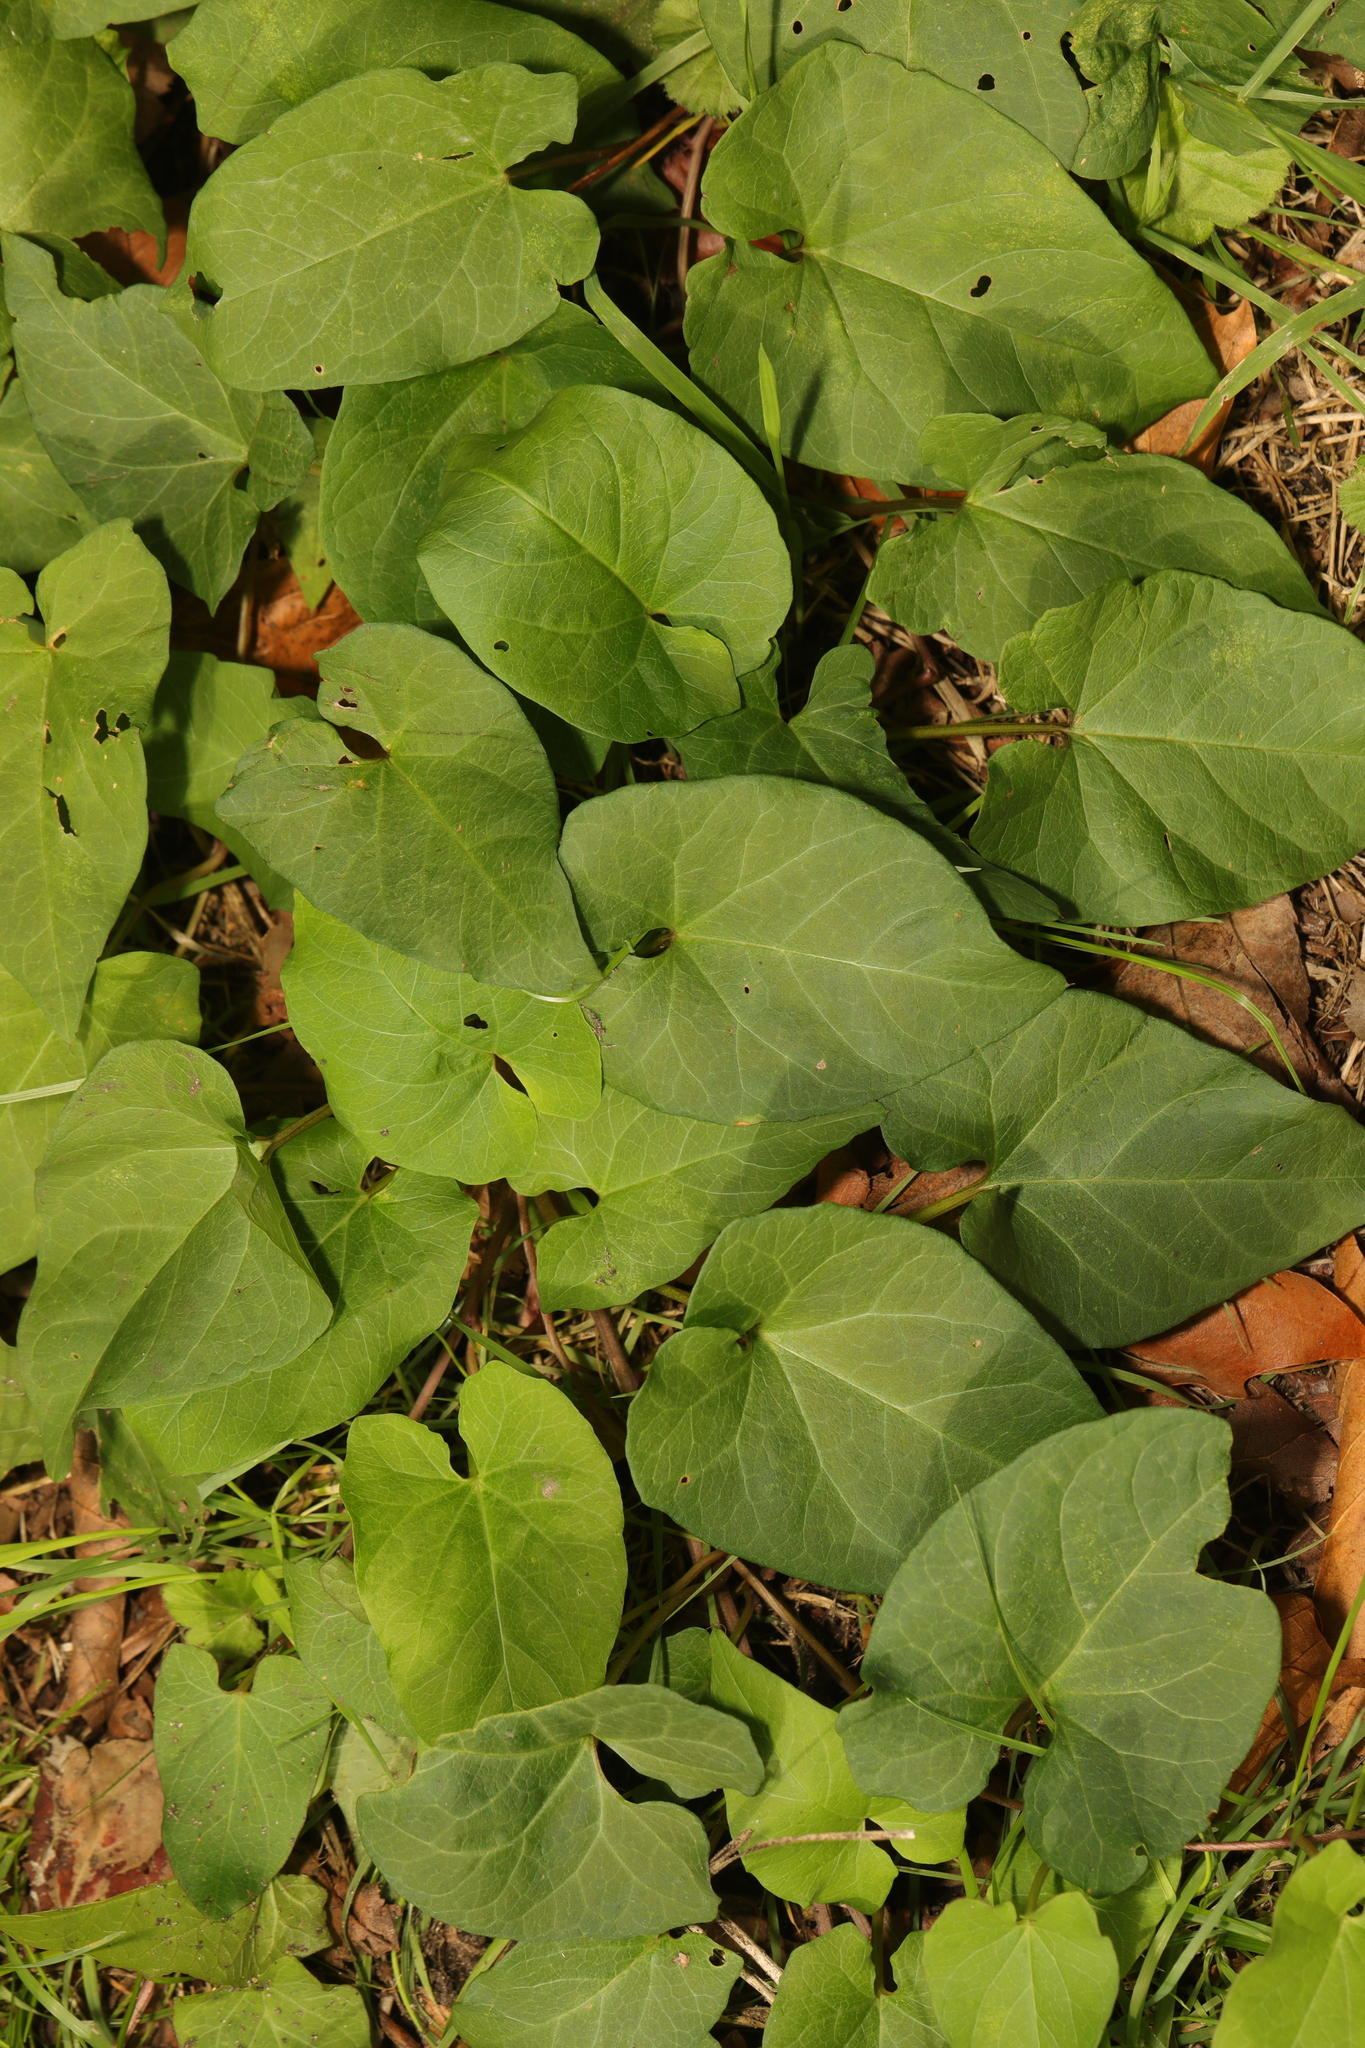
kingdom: Plantae
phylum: Tracheophyta
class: Magnoliopsida
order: Solanales
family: Convolvulaceae
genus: Calystegia
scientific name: Calystegia silvatica
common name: Large bindweed
